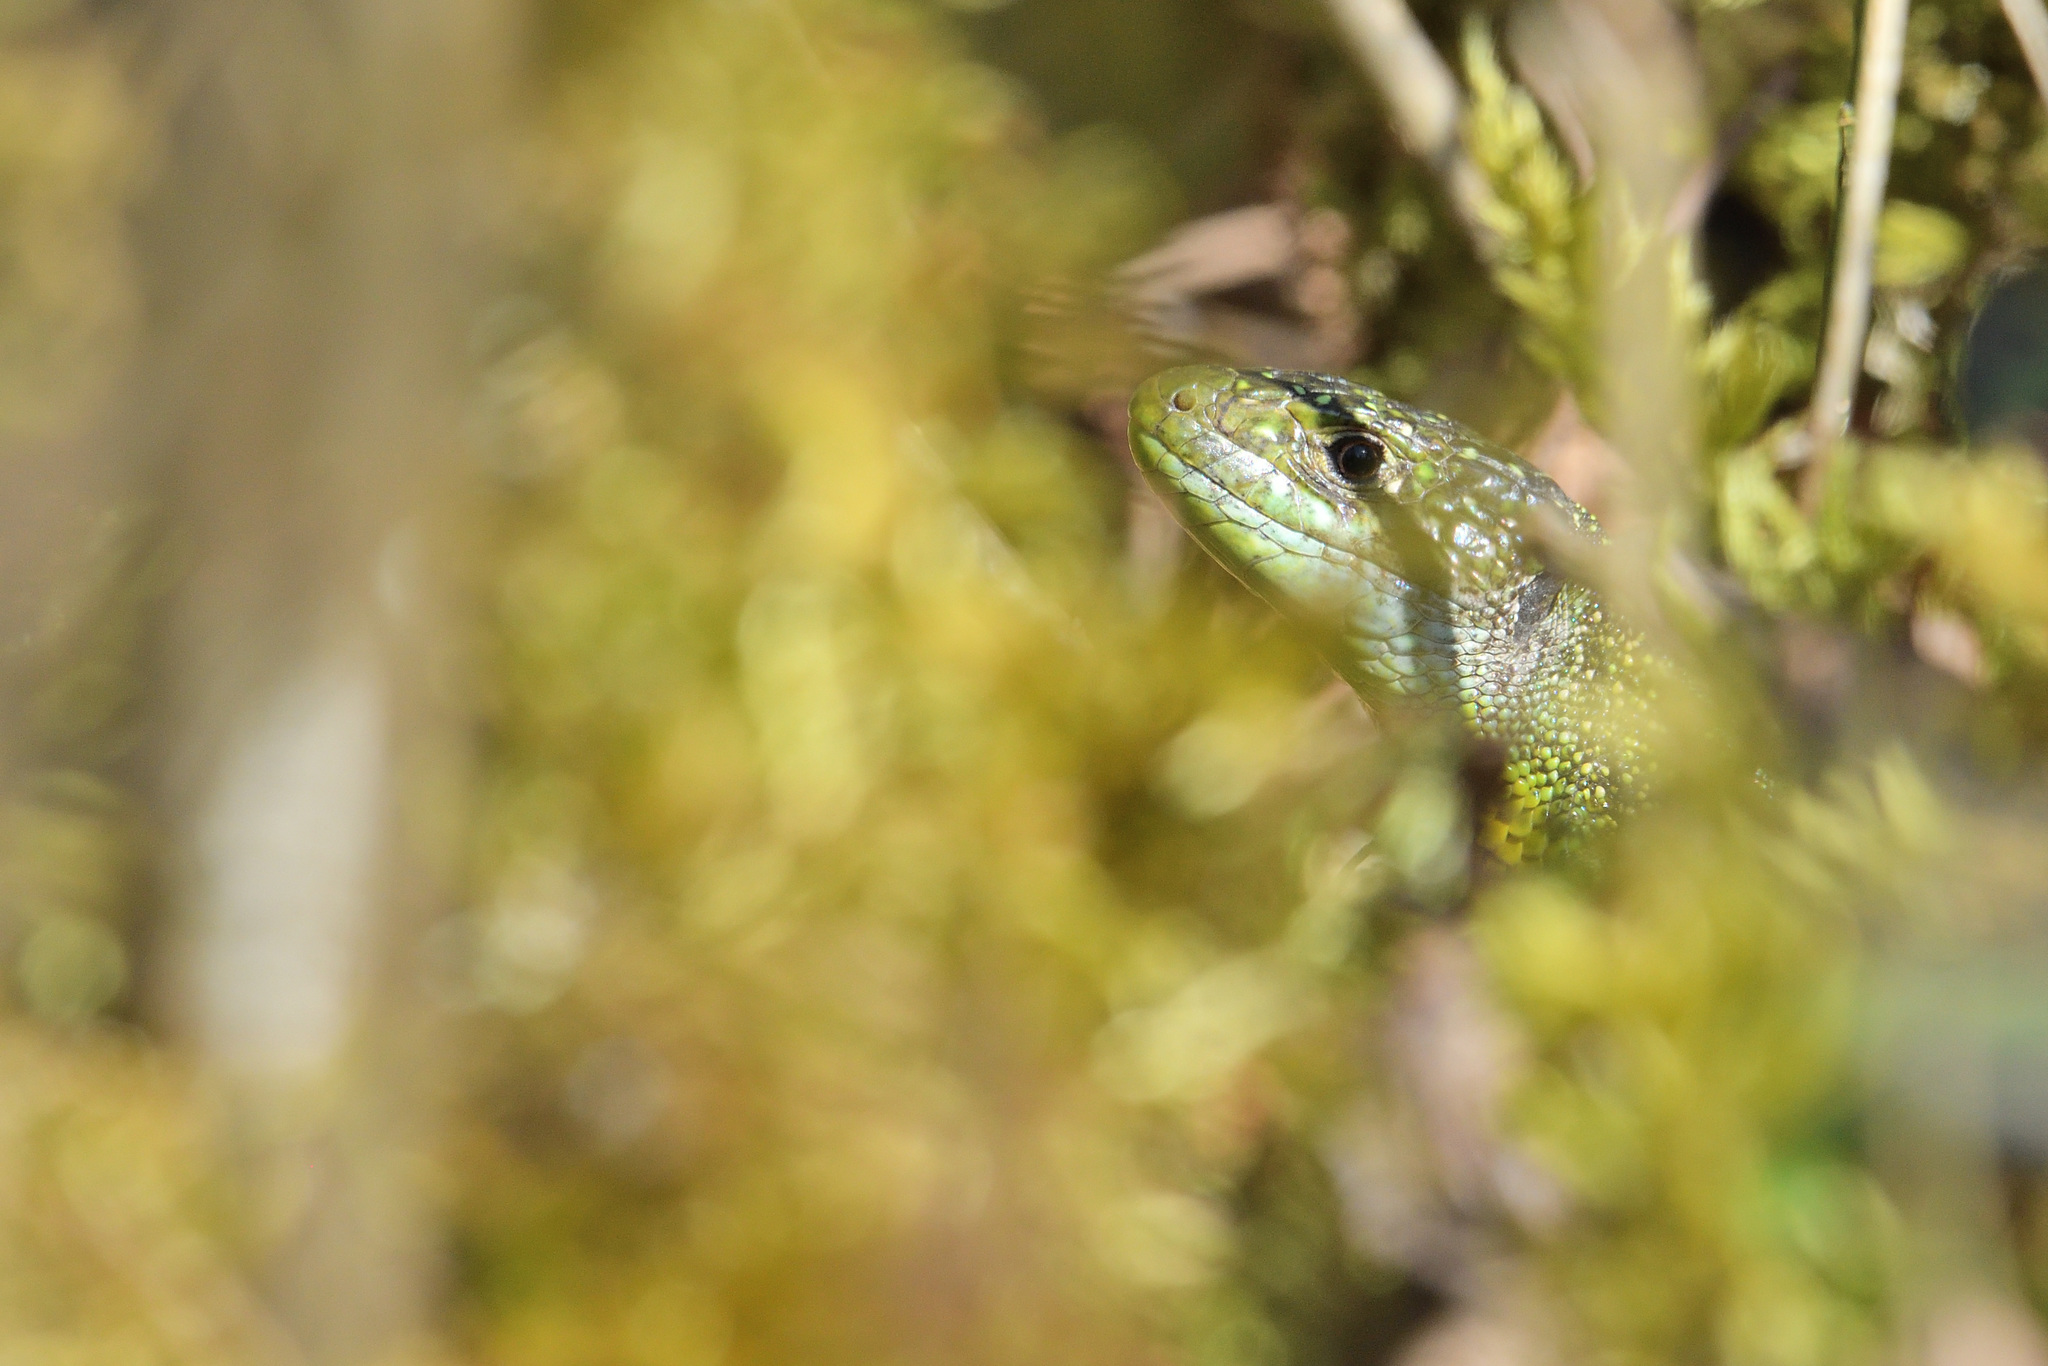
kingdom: Animalia
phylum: Chordata
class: Squamata
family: Lacertidae
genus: Lacerta
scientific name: Lacerta bilineata
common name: Western green lizard
